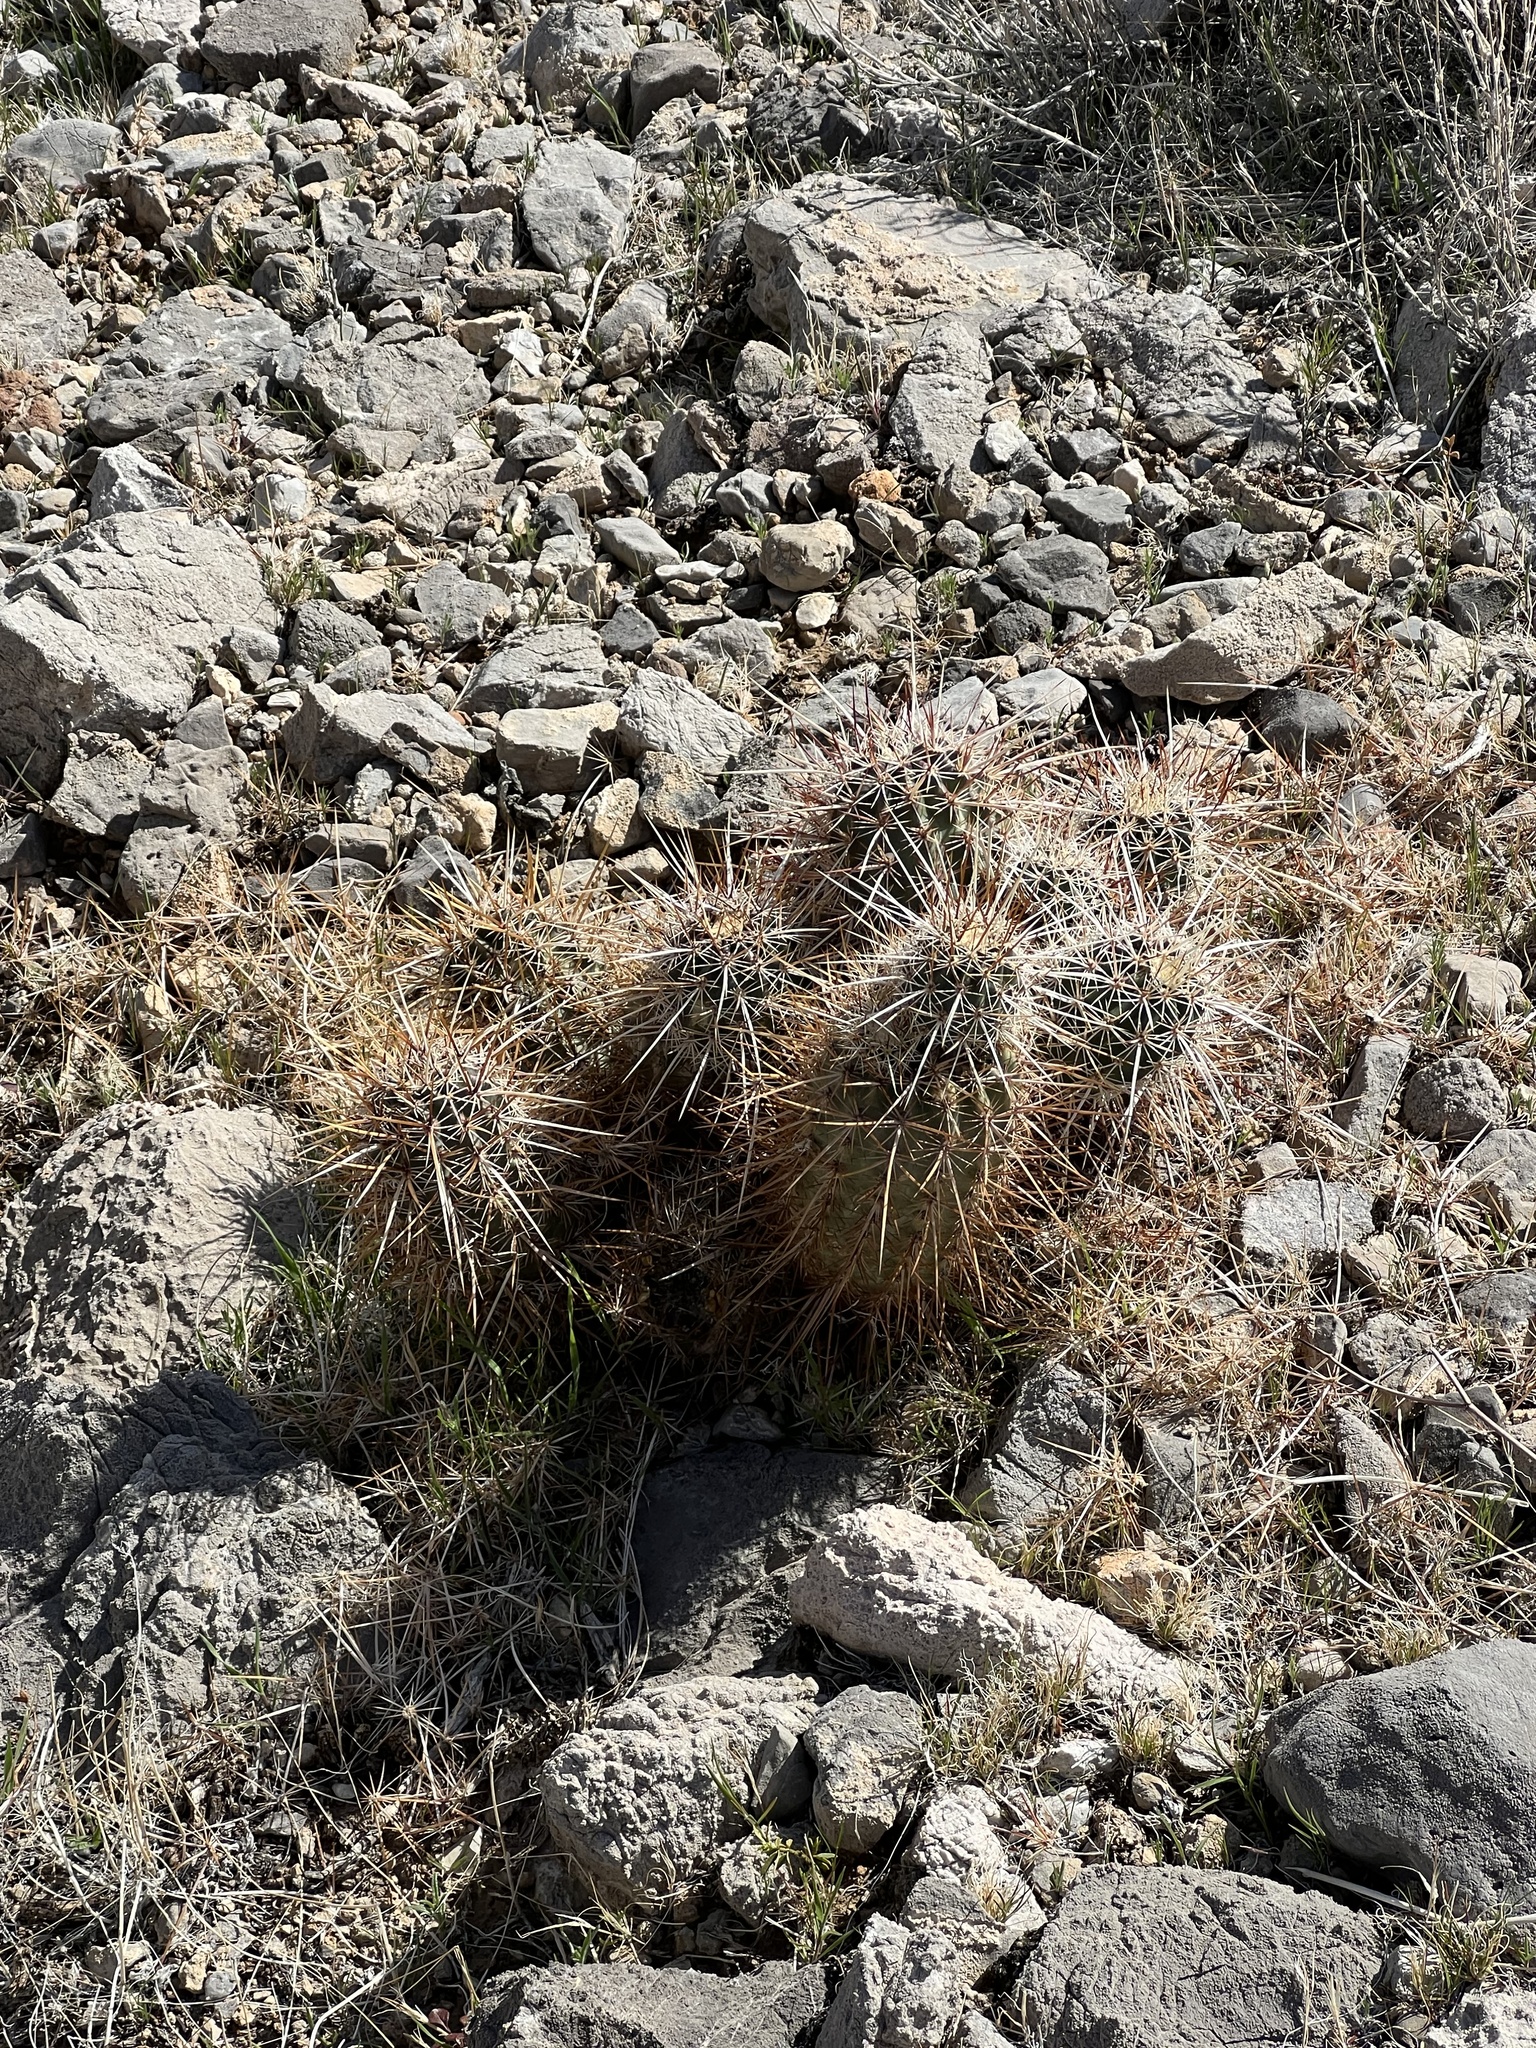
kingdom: Plantae
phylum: Tracheophyta
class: Magnoliopsida
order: Caryophyllales
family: Cactaceae
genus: Echinocereus
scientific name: Echinocereus engelmannii
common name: Engelmann's hedgehog cactus
